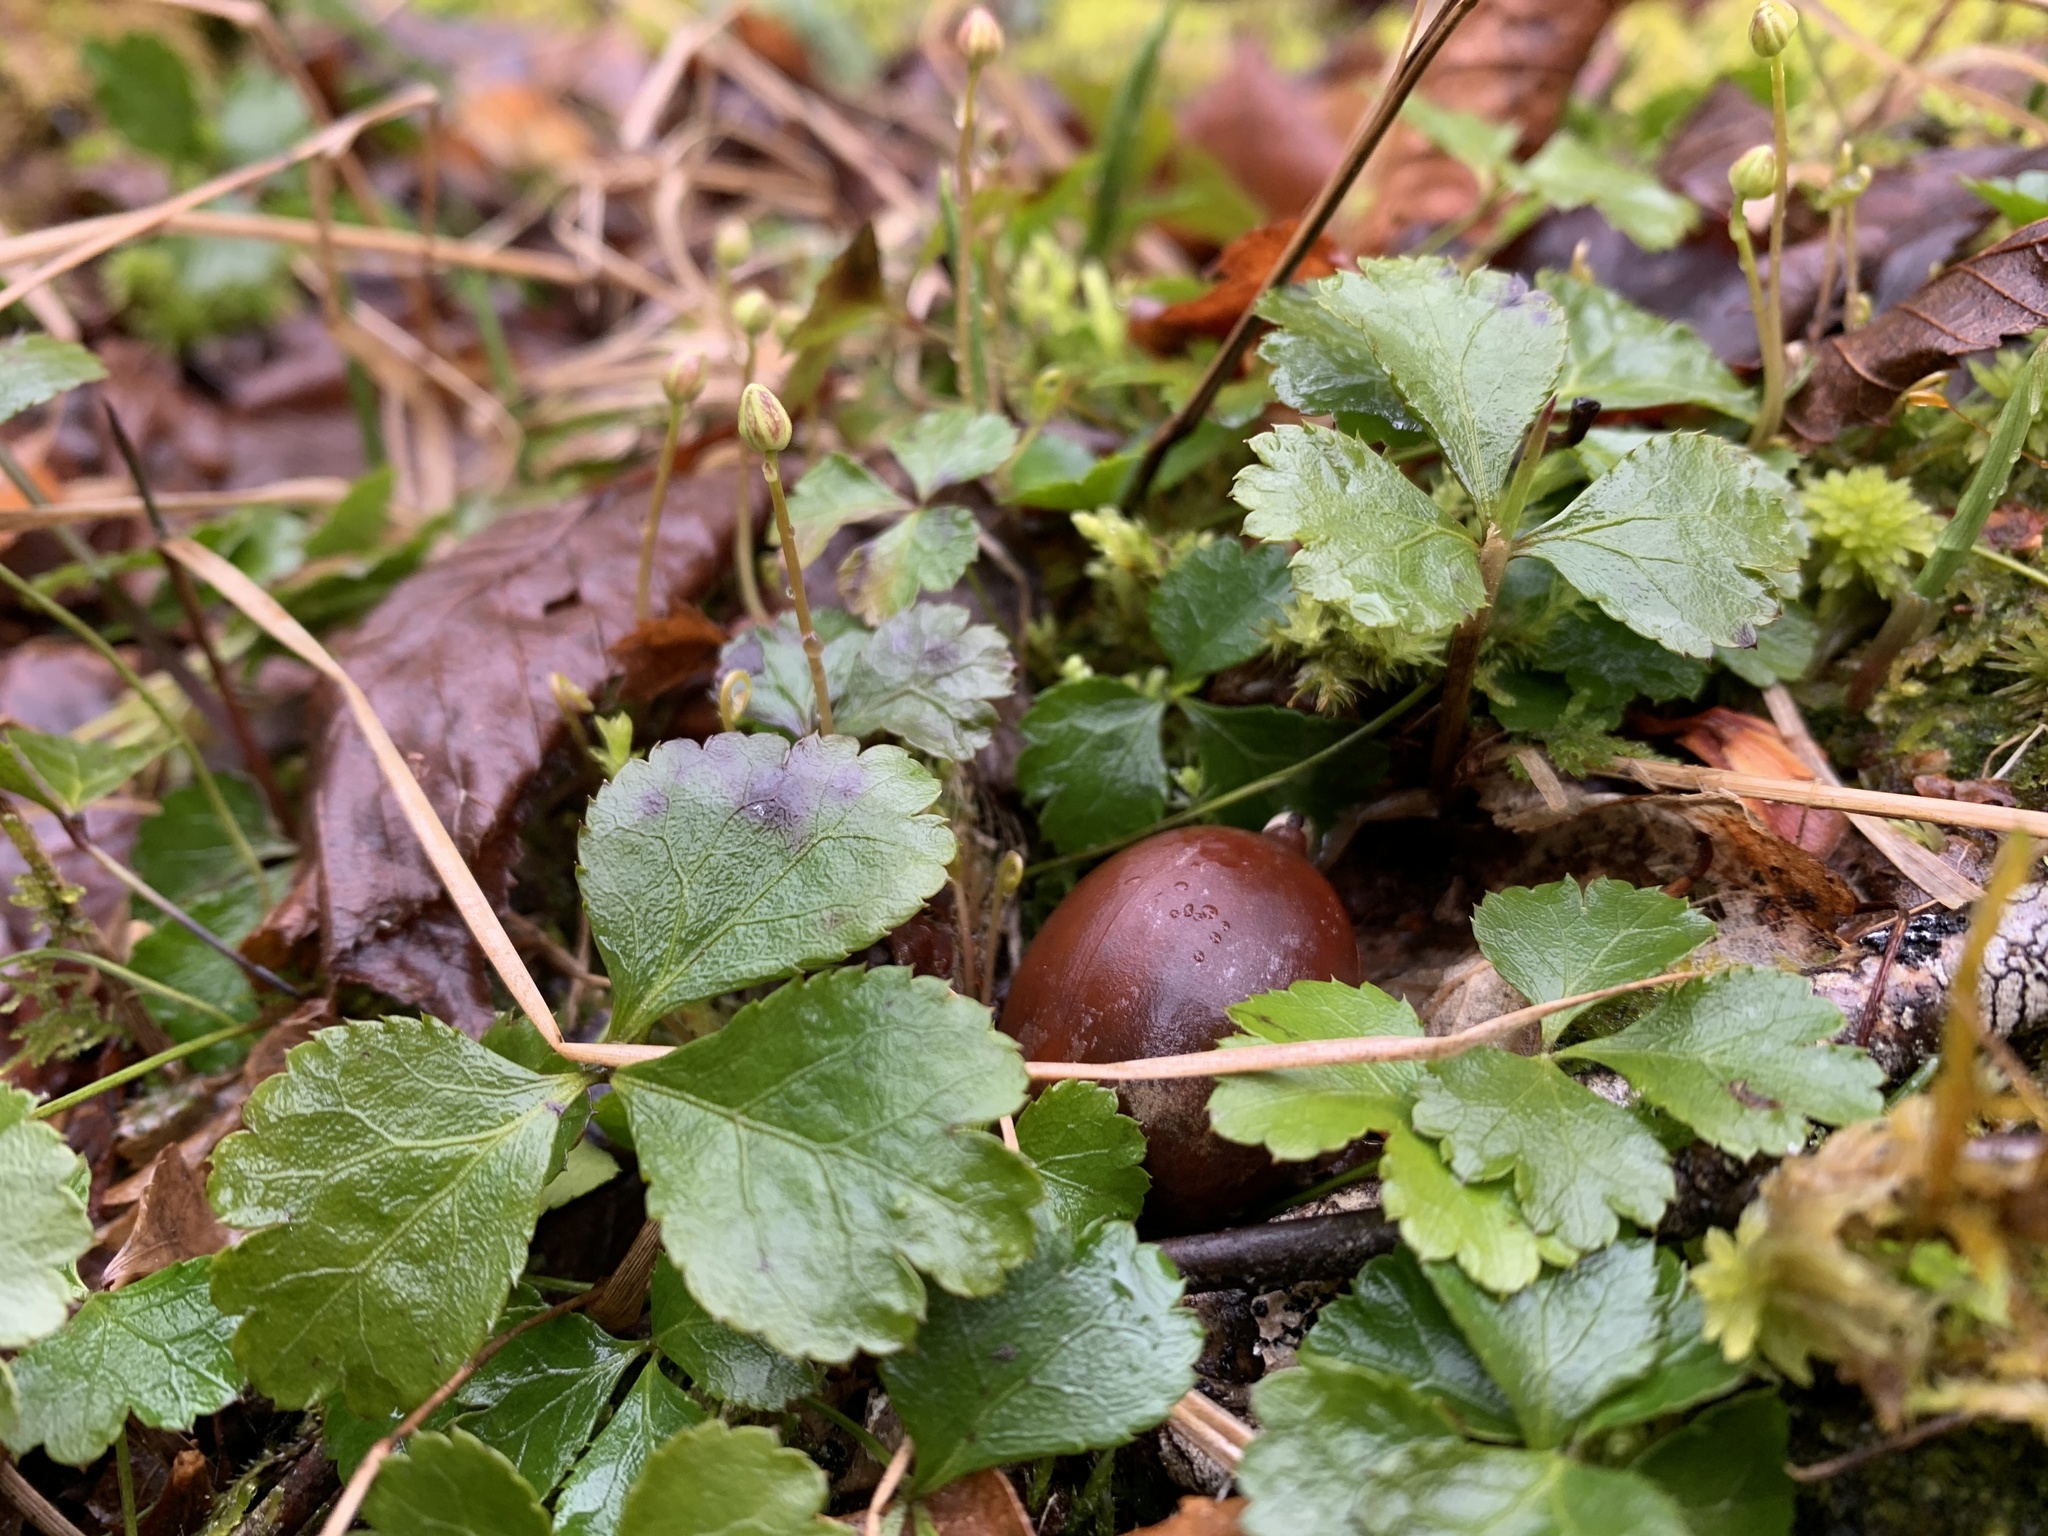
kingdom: Plantae
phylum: Tracheophyta
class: Magnoliopsida
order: Ranunculales
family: Ranunculaceae
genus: Coptis
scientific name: Coptis trifolia
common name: Canker-root
